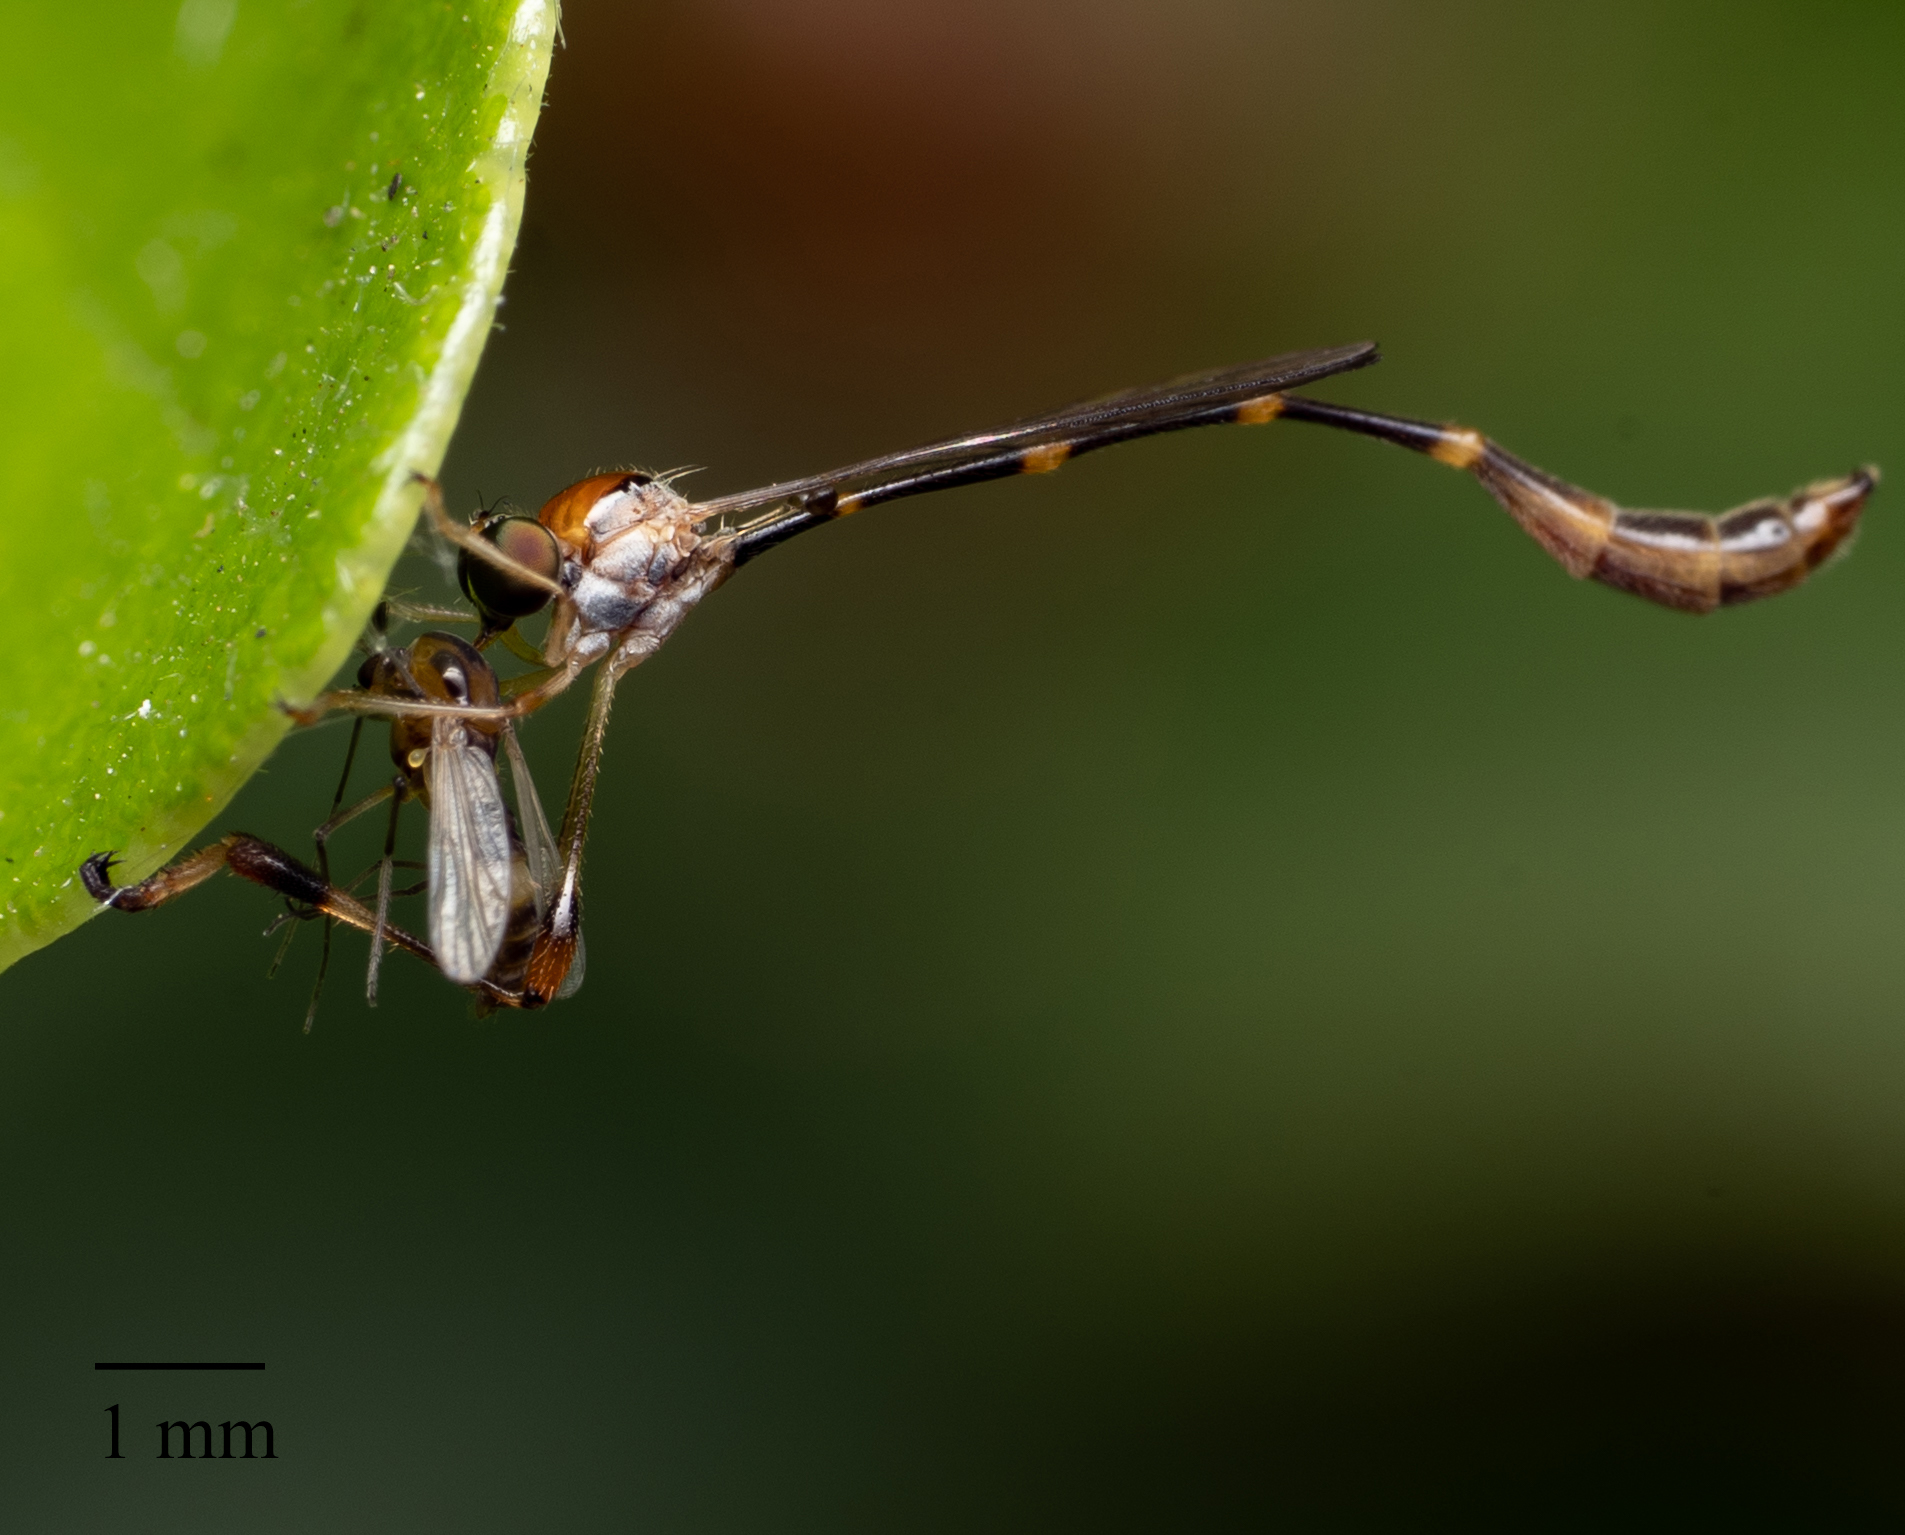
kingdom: Animalia
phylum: Arthropoda
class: Insecta
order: Diptera
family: Asilidae
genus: Leptopteromyia
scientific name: Leptopteromyia americana
